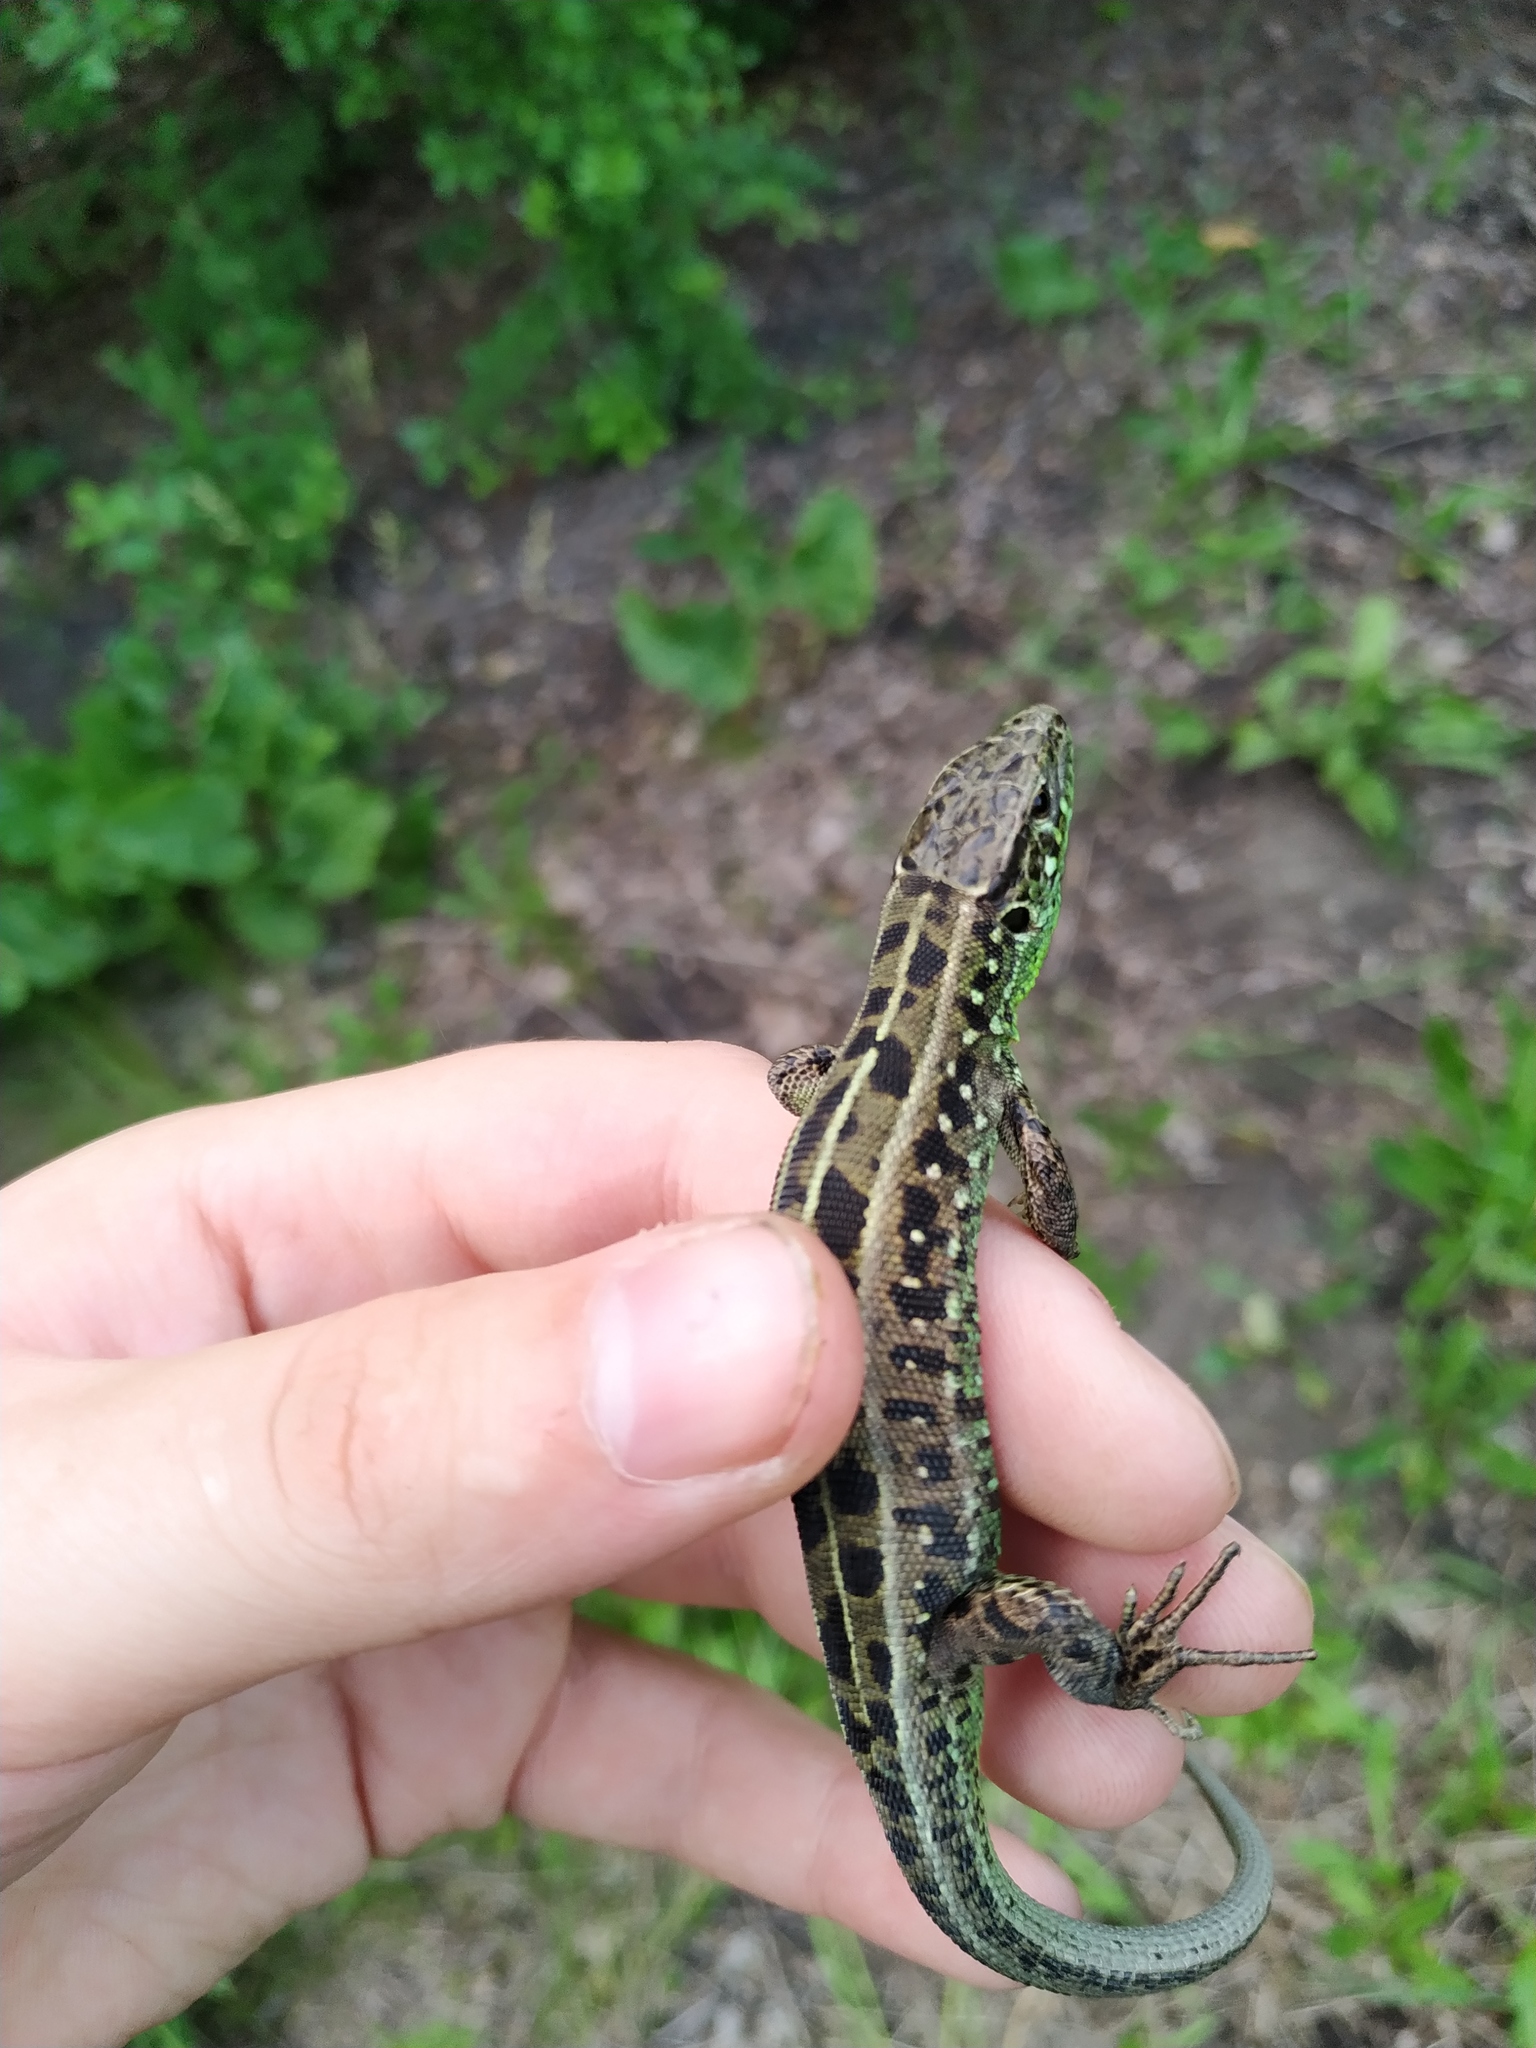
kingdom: Animalia
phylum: Chordata
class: Squamata
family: Lacertidae
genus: Lacerta
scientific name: Lacerta agilis
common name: Sand lizard
